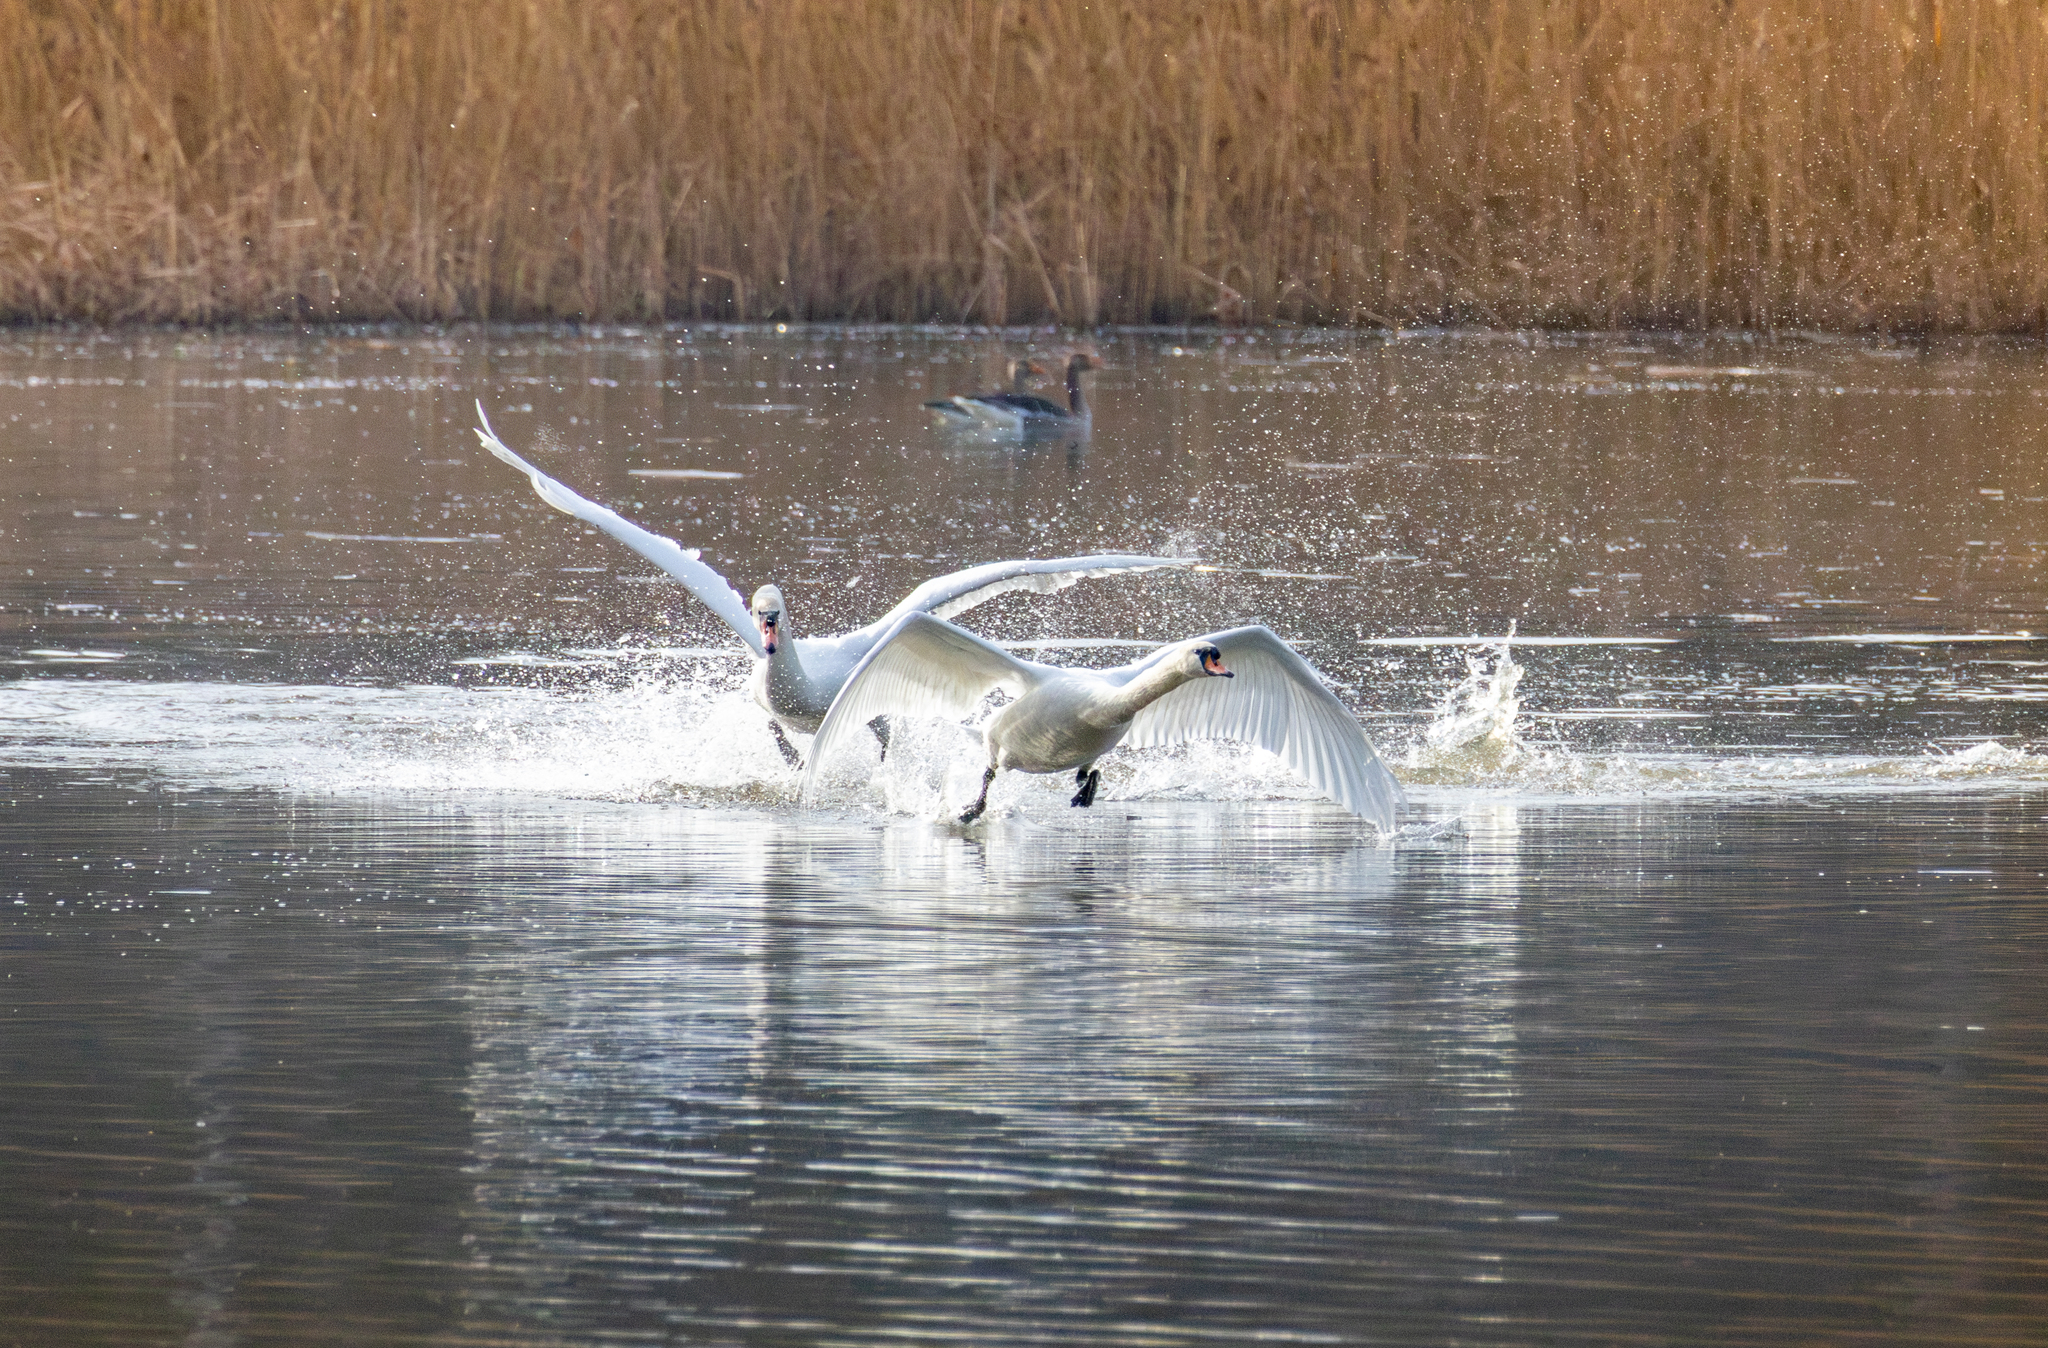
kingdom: Animalia
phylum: Chordata
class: Aves
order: Anseriformes
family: Anatidae
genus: Cygnus
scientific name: Cygnus olor
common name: Mute swan
